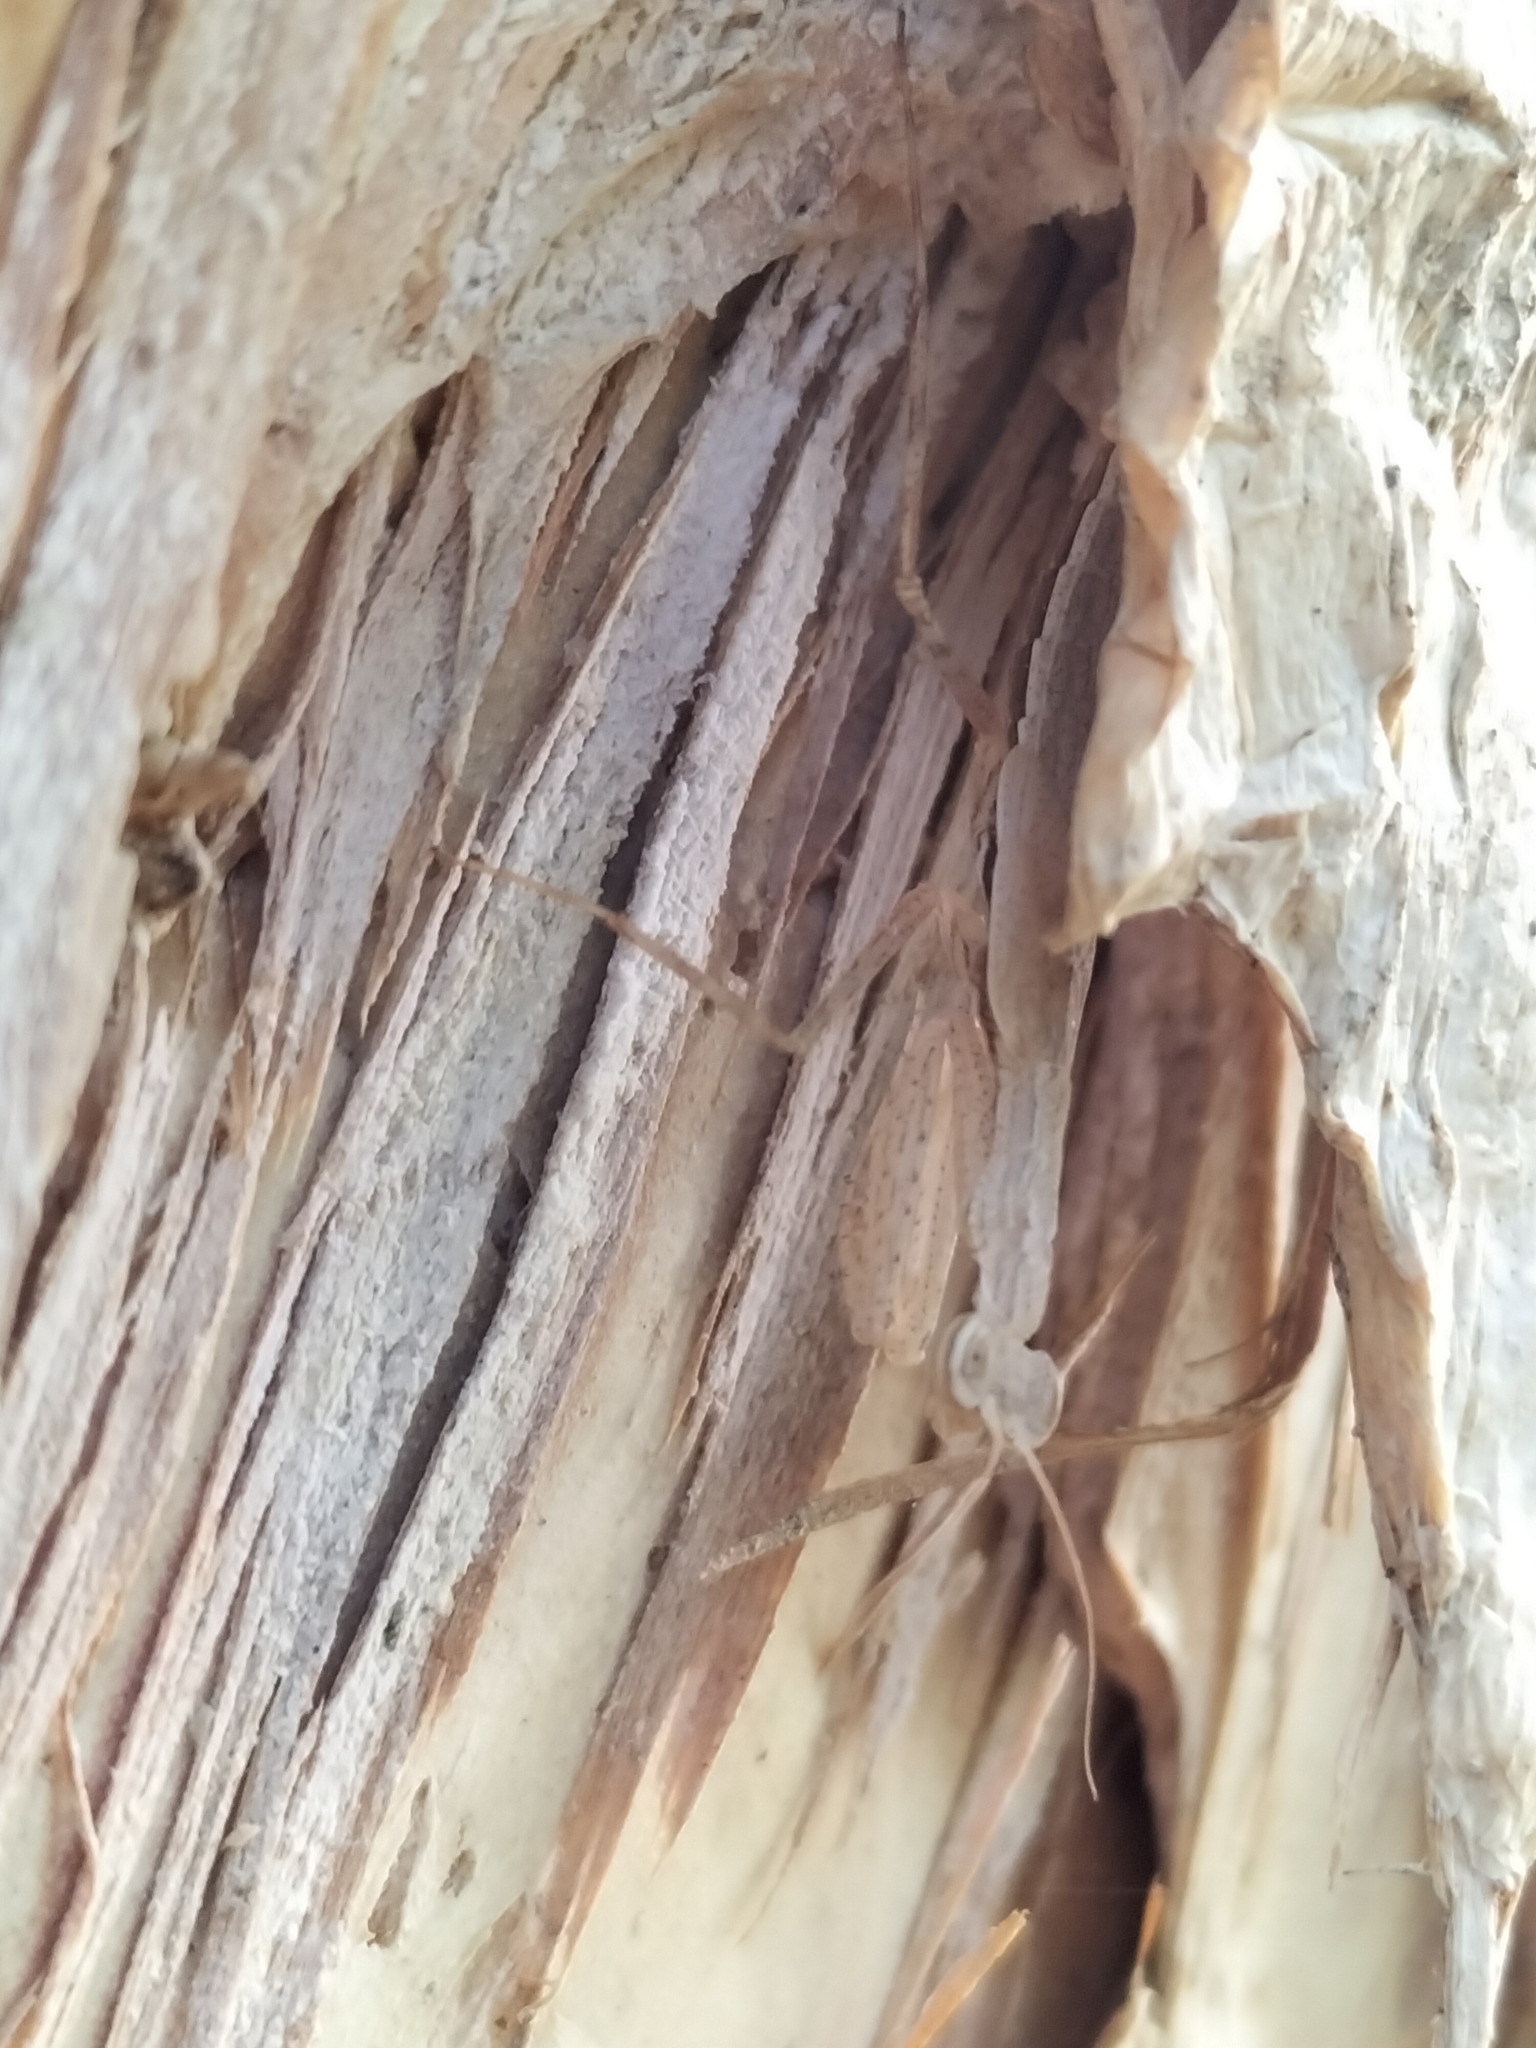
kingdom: Animalia
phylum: Arthropoda
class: Insecta
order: Mantodea
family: Nanomantidae
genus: Ima
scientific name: Ima fusca
